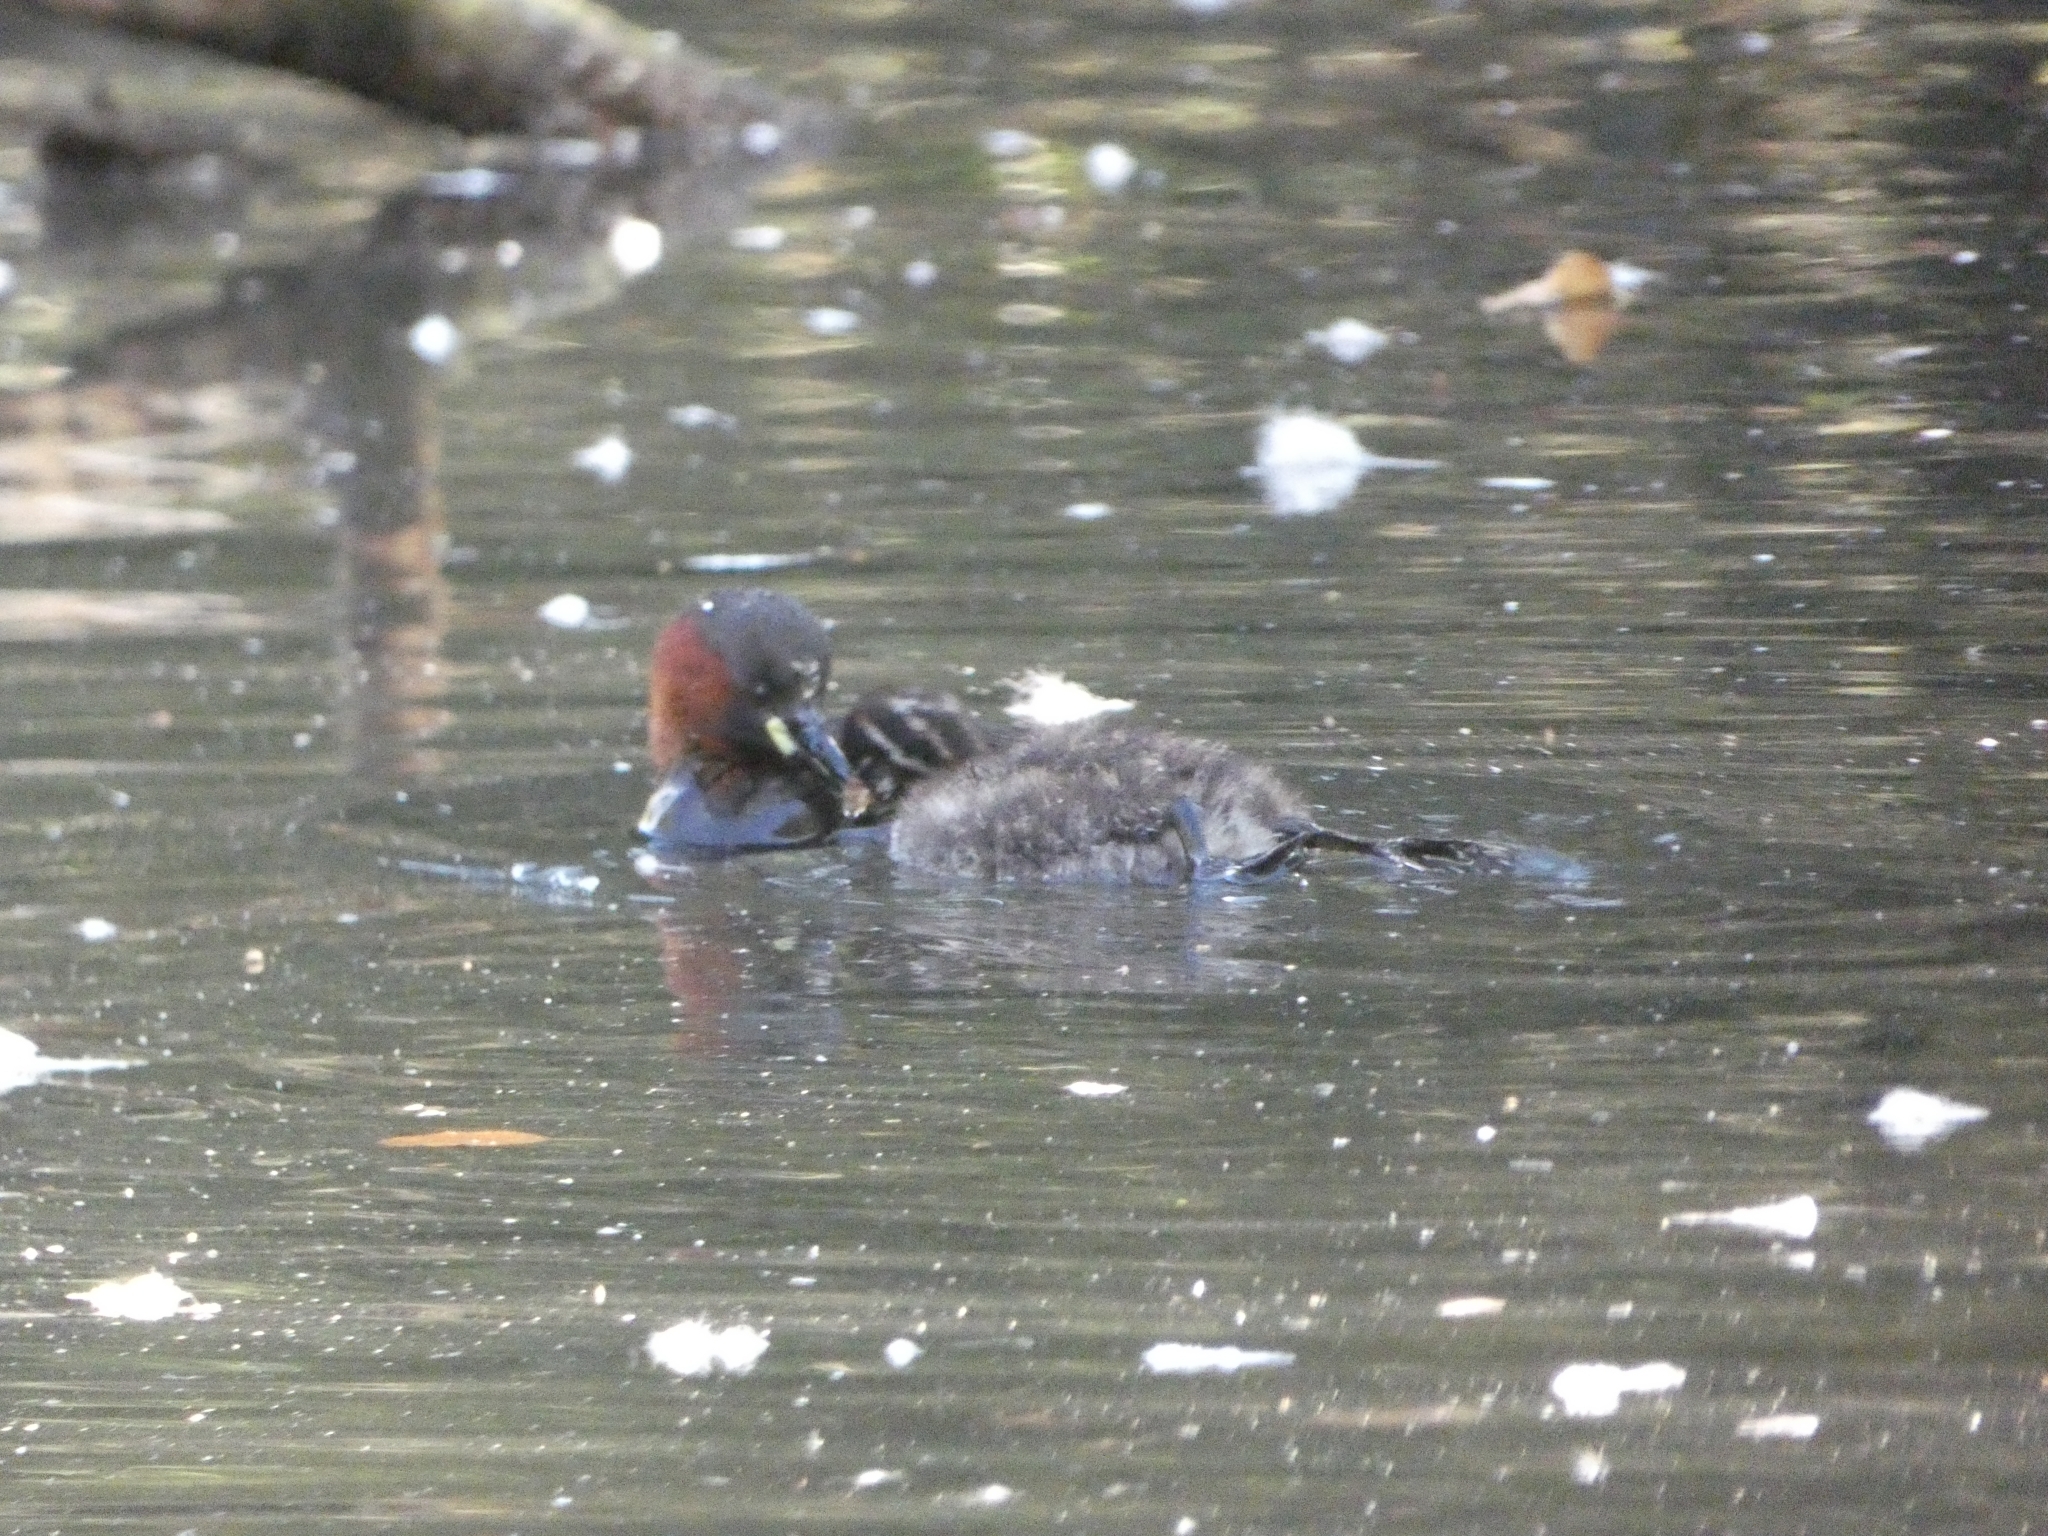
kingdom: Animalia
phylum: Chordata
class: Aves
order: Podicipediformes
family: Podicipedidae
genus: Tachybaptus
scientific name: Tachybaptus ruficollis
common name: Little grebe
